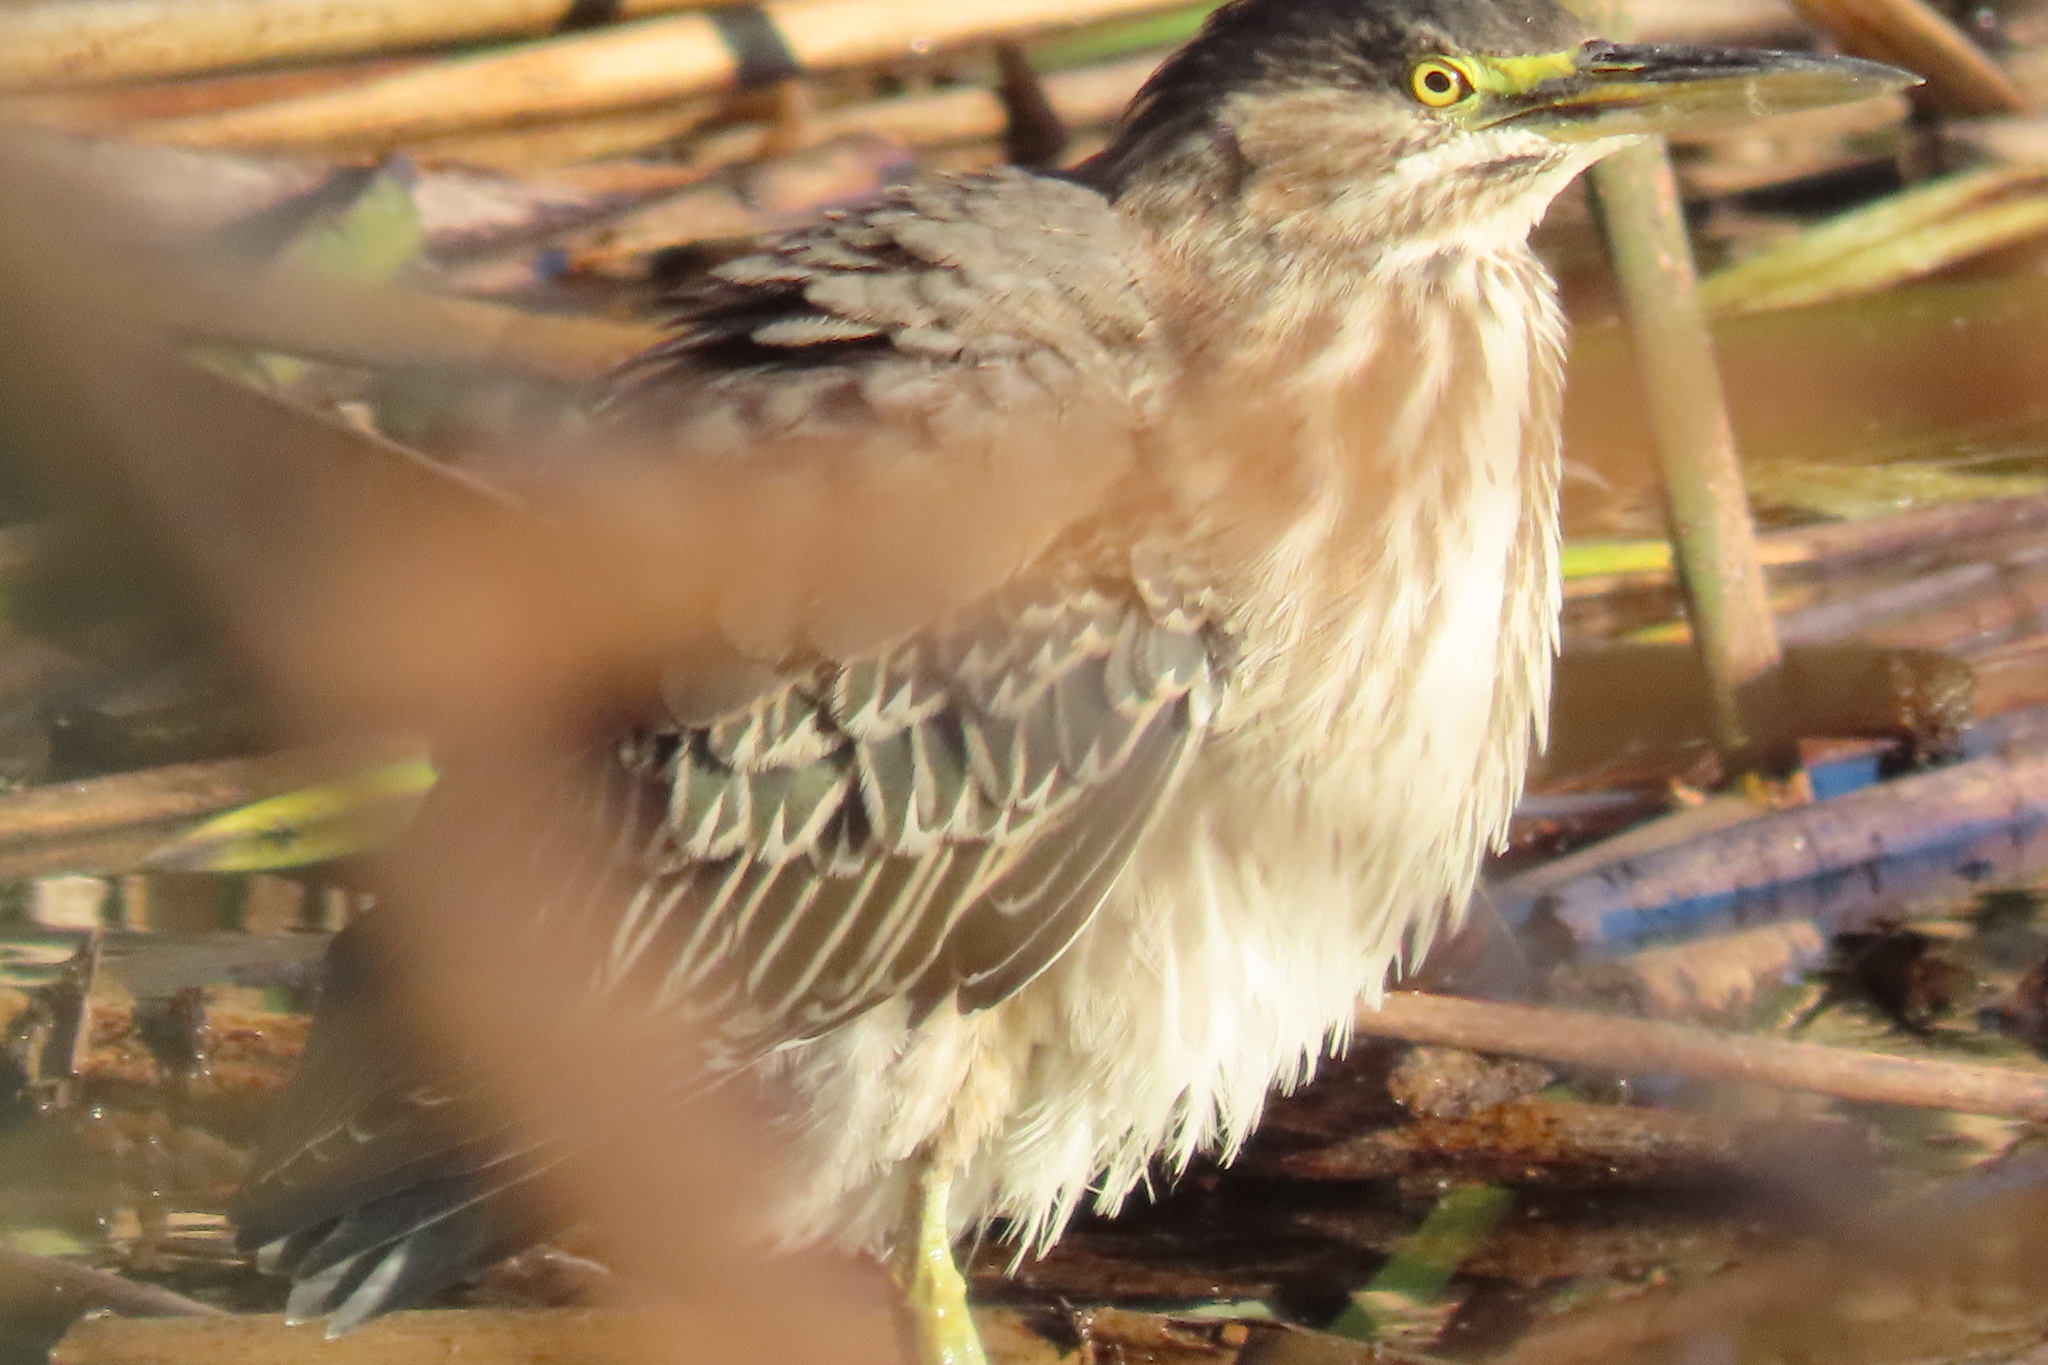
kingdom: Animalia
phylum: Chordata
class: Aves
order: Pelecaniformes
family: Ardeidae
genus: Butorides
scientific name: Butorides virescens
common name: Green heron
